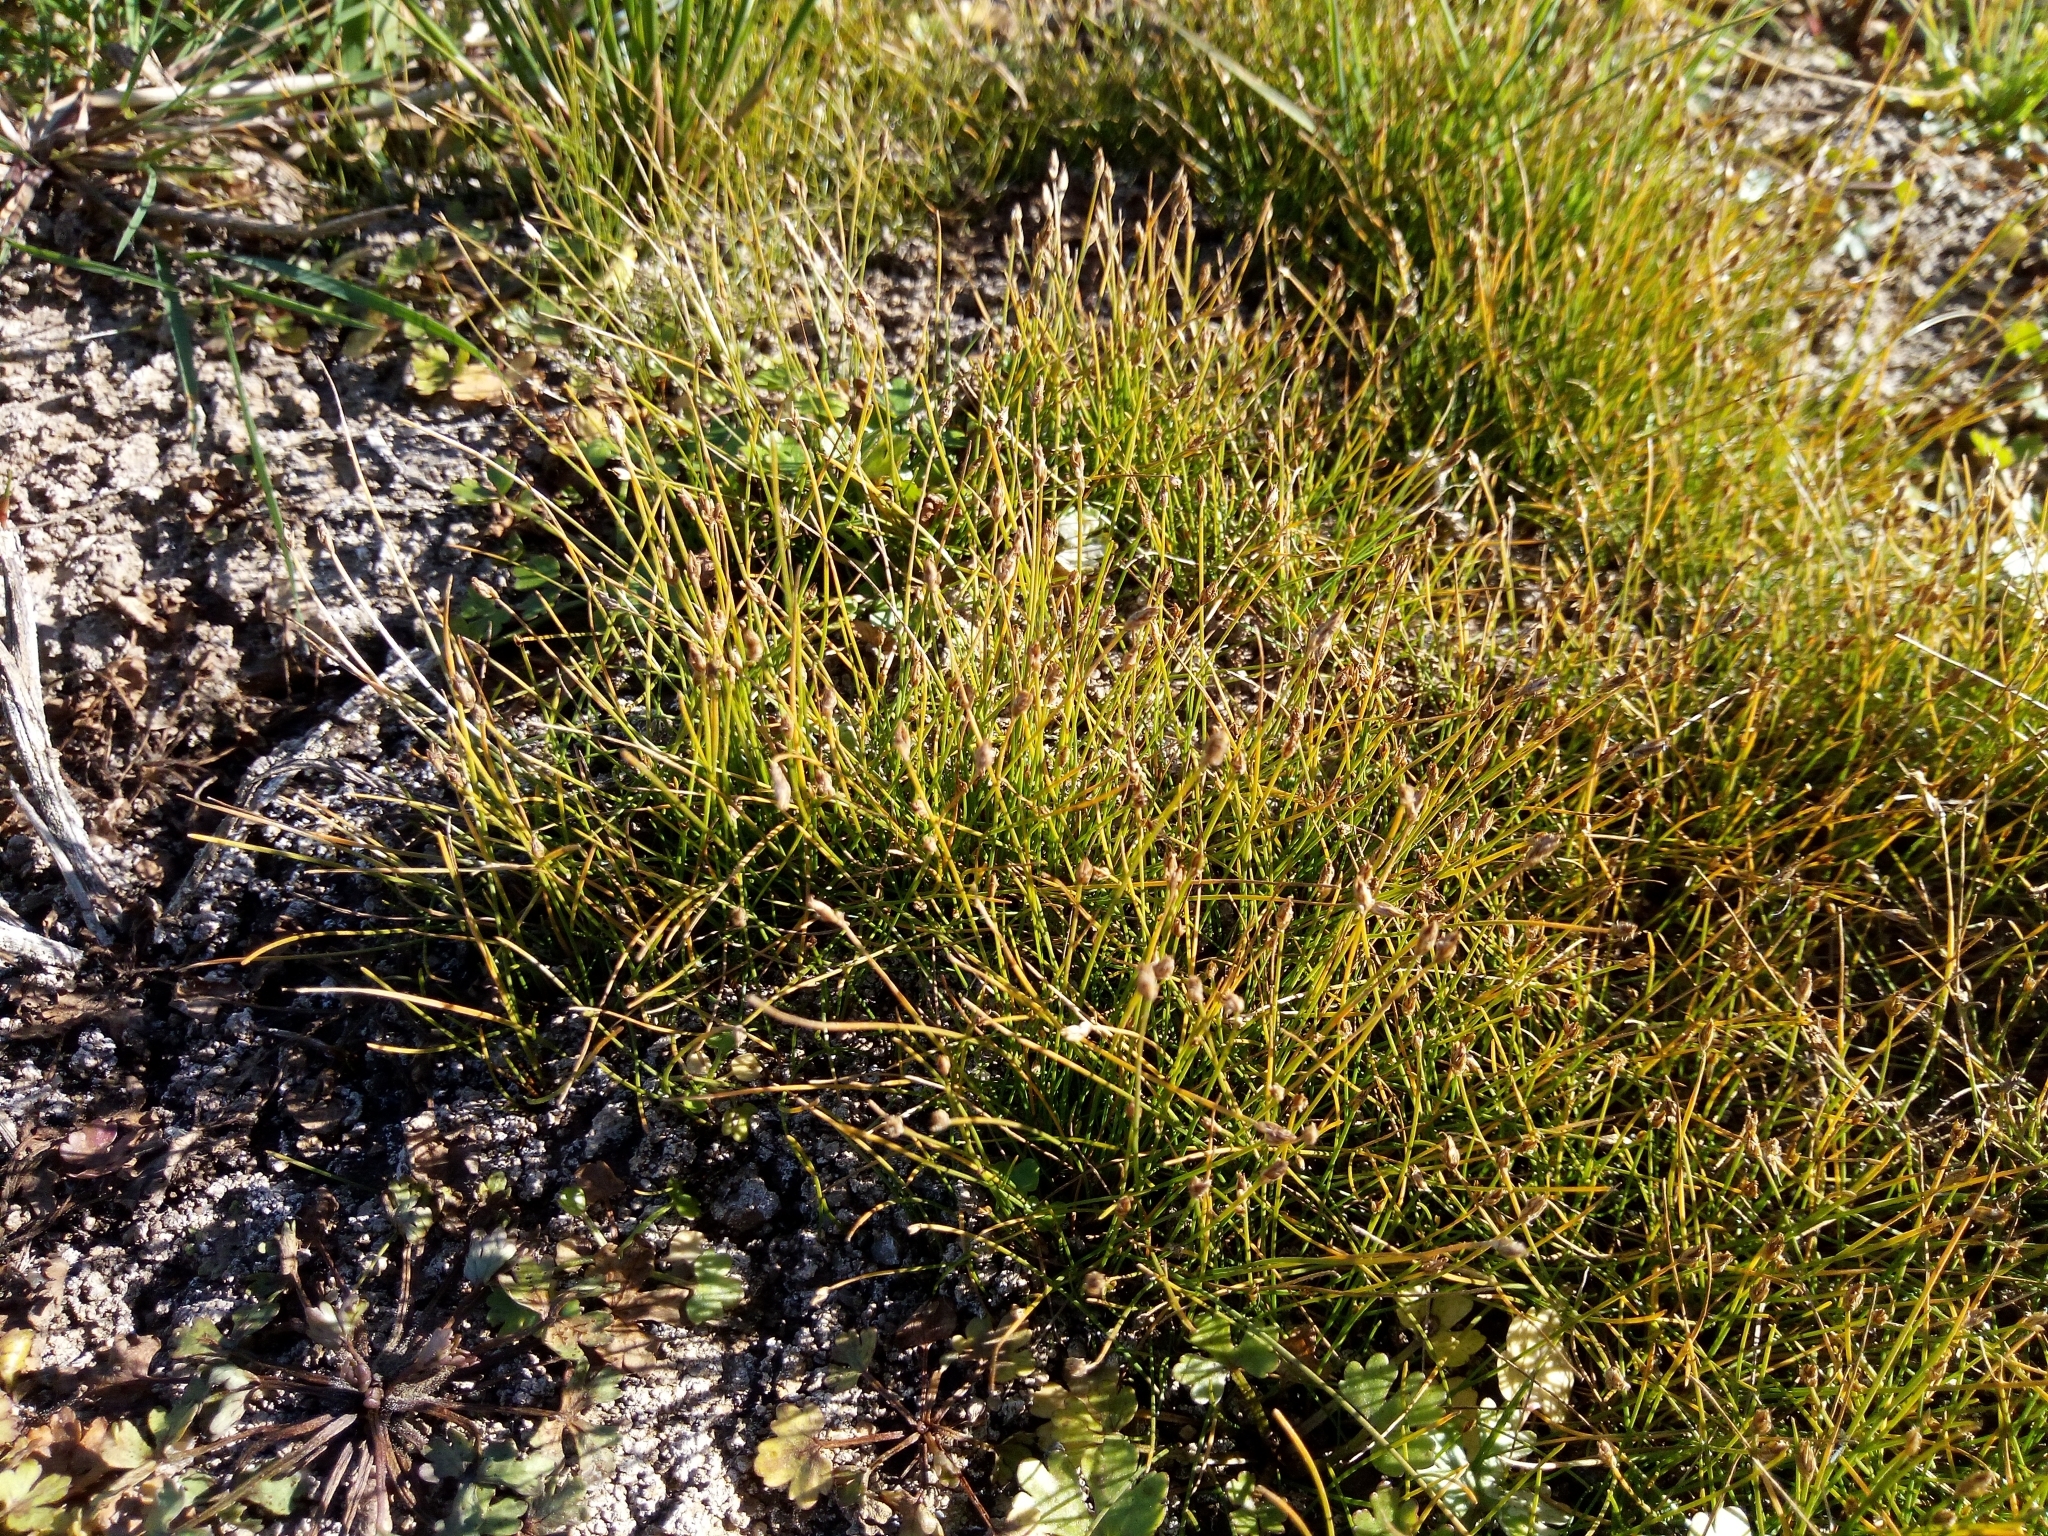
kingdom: Plantae
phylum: Tracheophyta
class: Liliopsida
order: Poales
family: Cyperaceae
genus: Eleocharis
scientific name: Eleocharis acicularis
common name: Needle spike-rush
